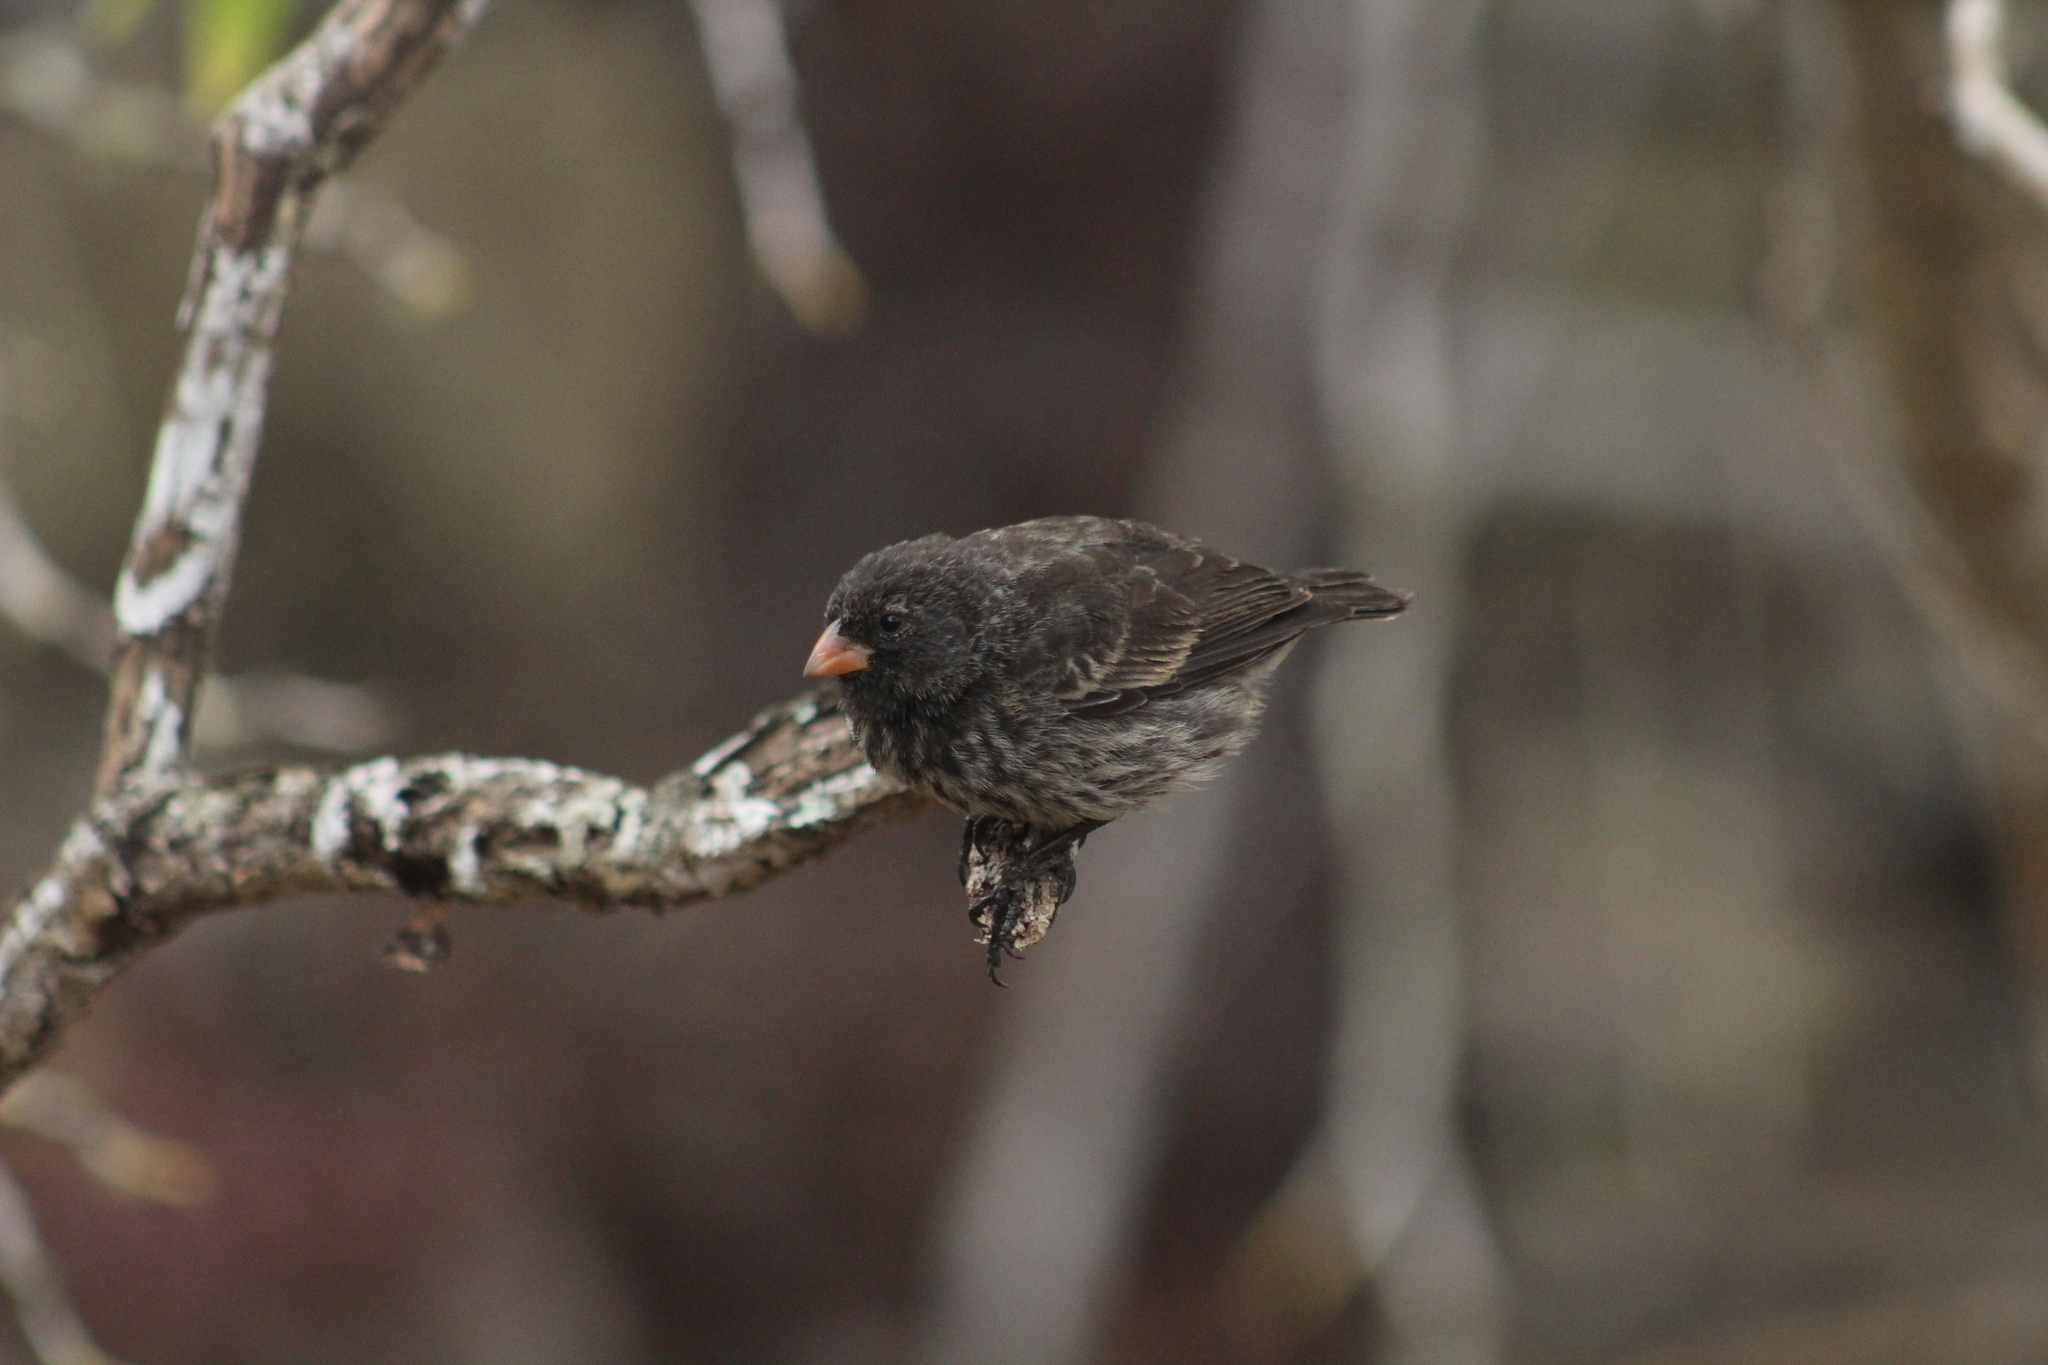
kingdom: Animalia
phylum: Chordata
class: Aves
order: Passeriformes
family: Thraupidae
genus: Geospiza
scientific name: Geospiza fuliginosa
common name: Small ground finch
